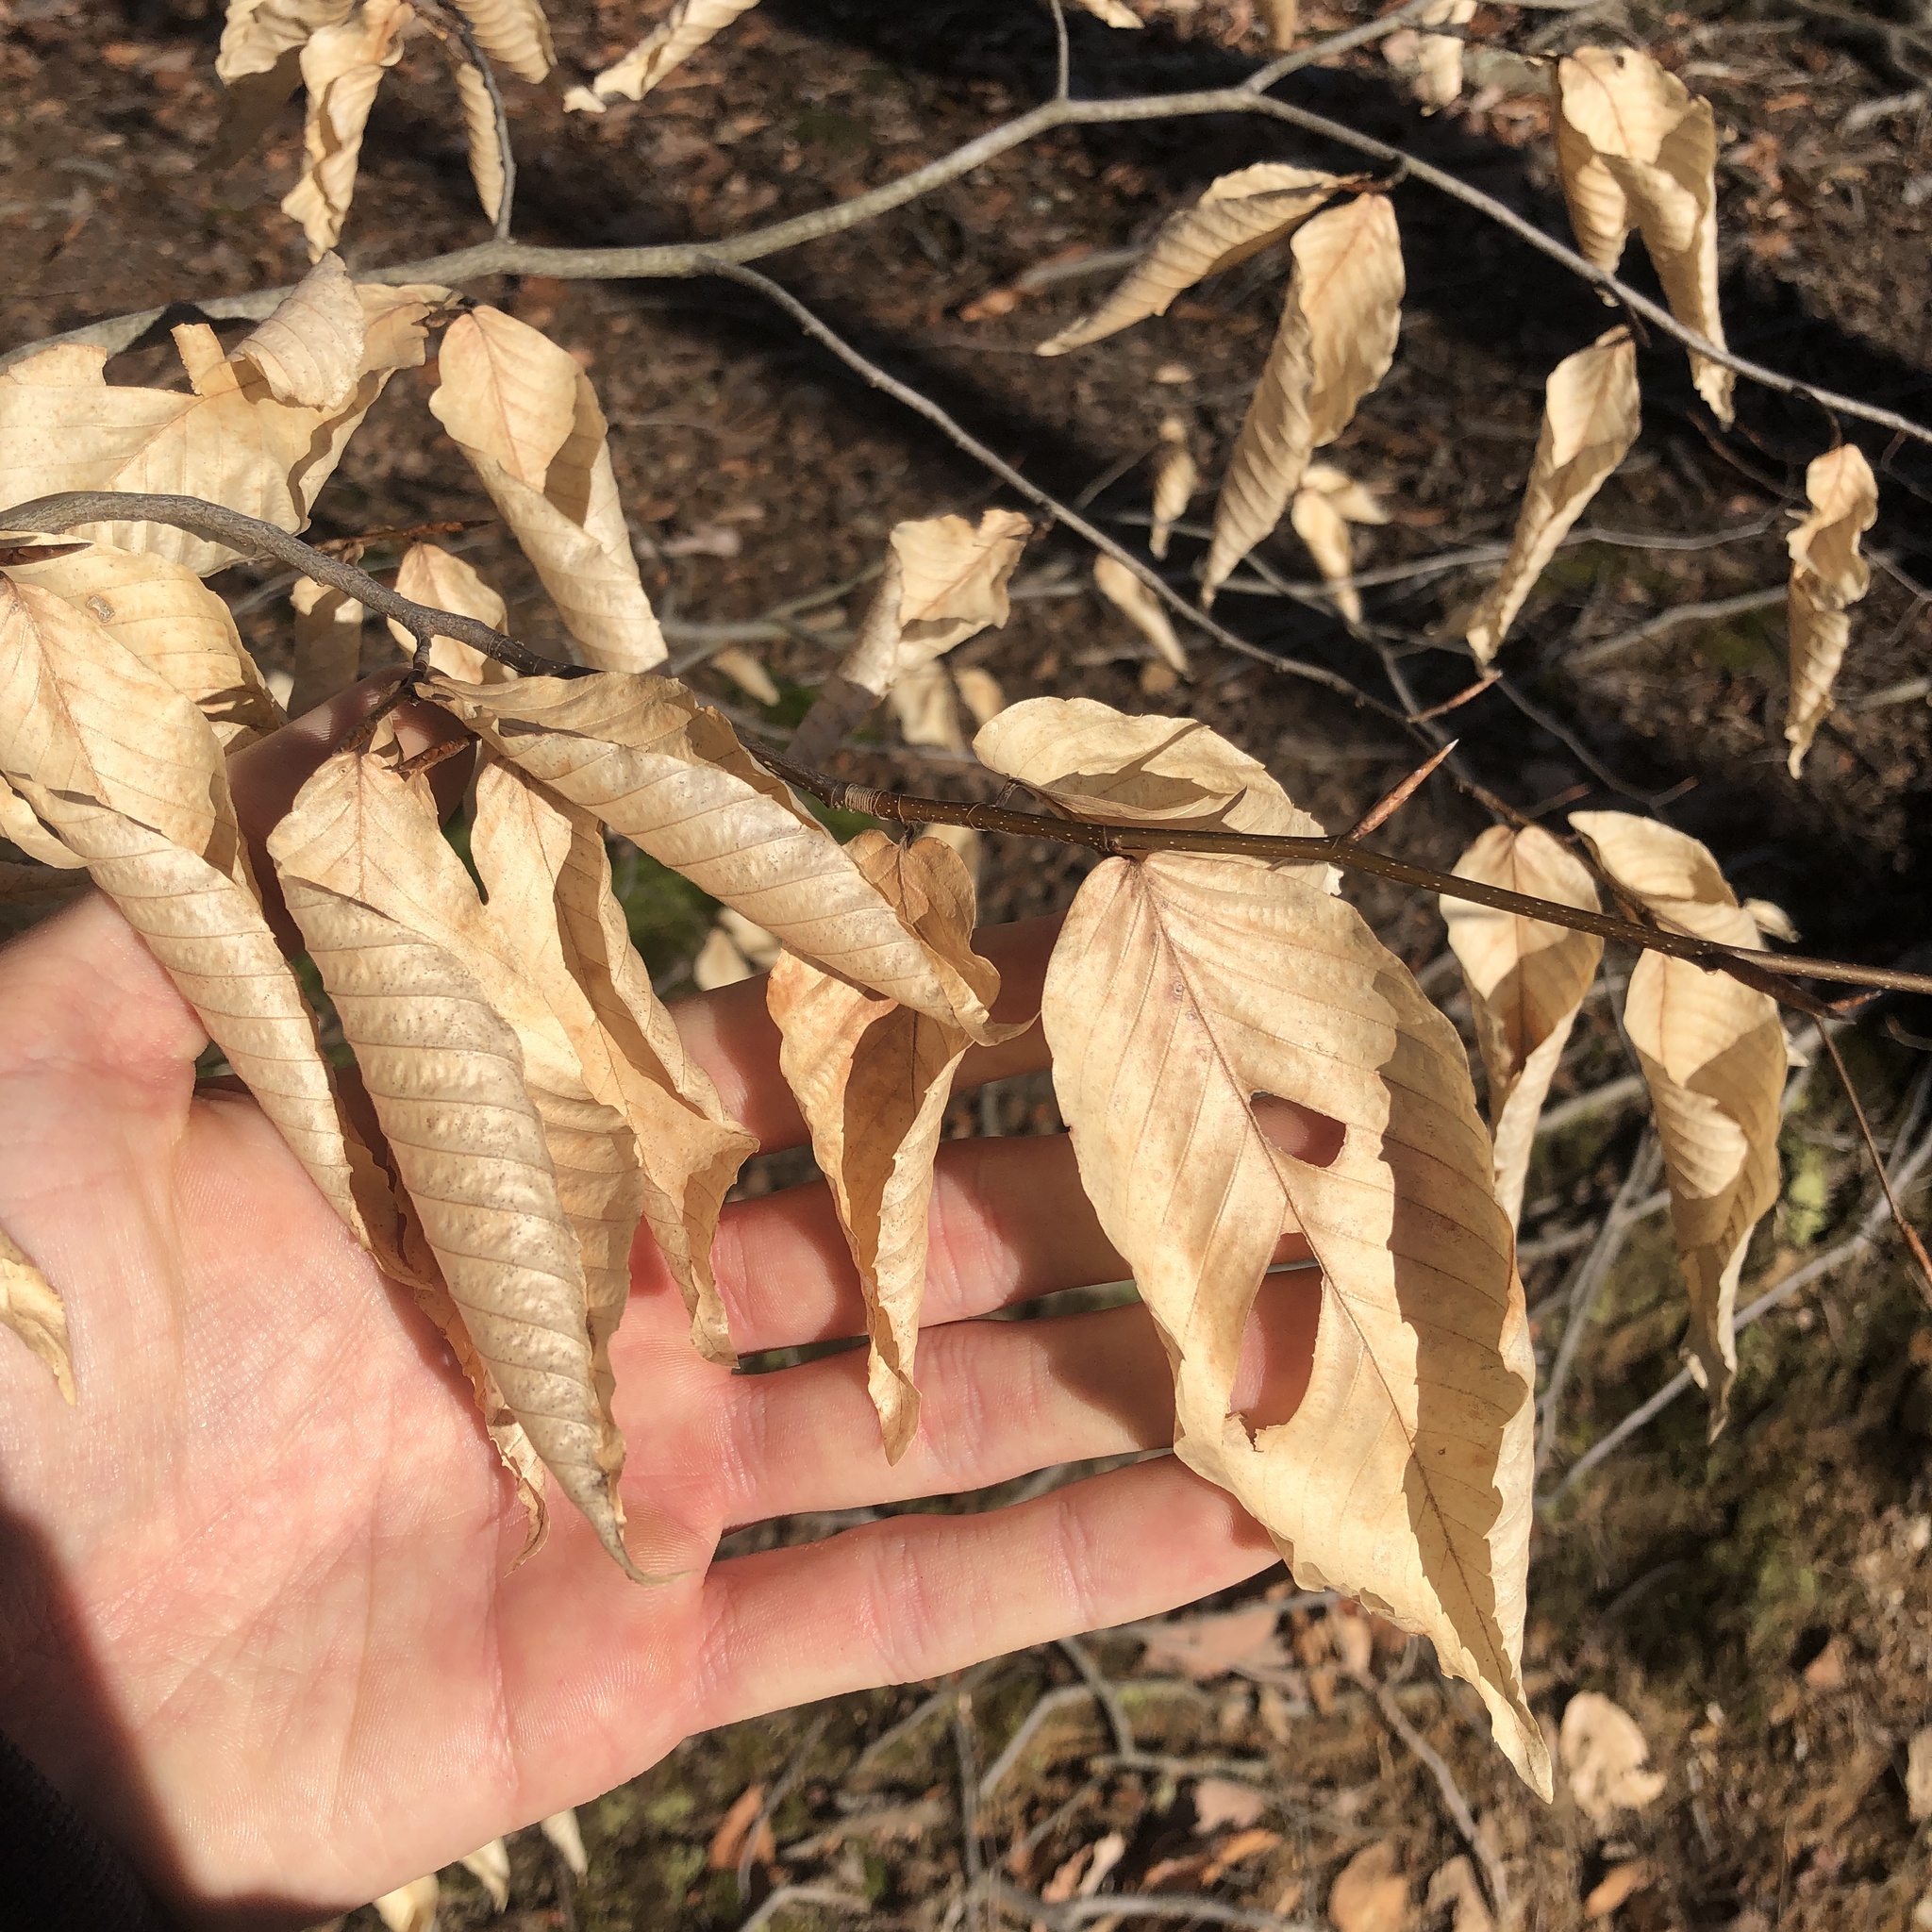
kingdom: Plantae
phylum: Tracheophyta
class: Magnoliopsida
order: Fagales
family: Fagaceae
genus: Fagus
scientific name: Fagus grandifolia
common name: American beech
